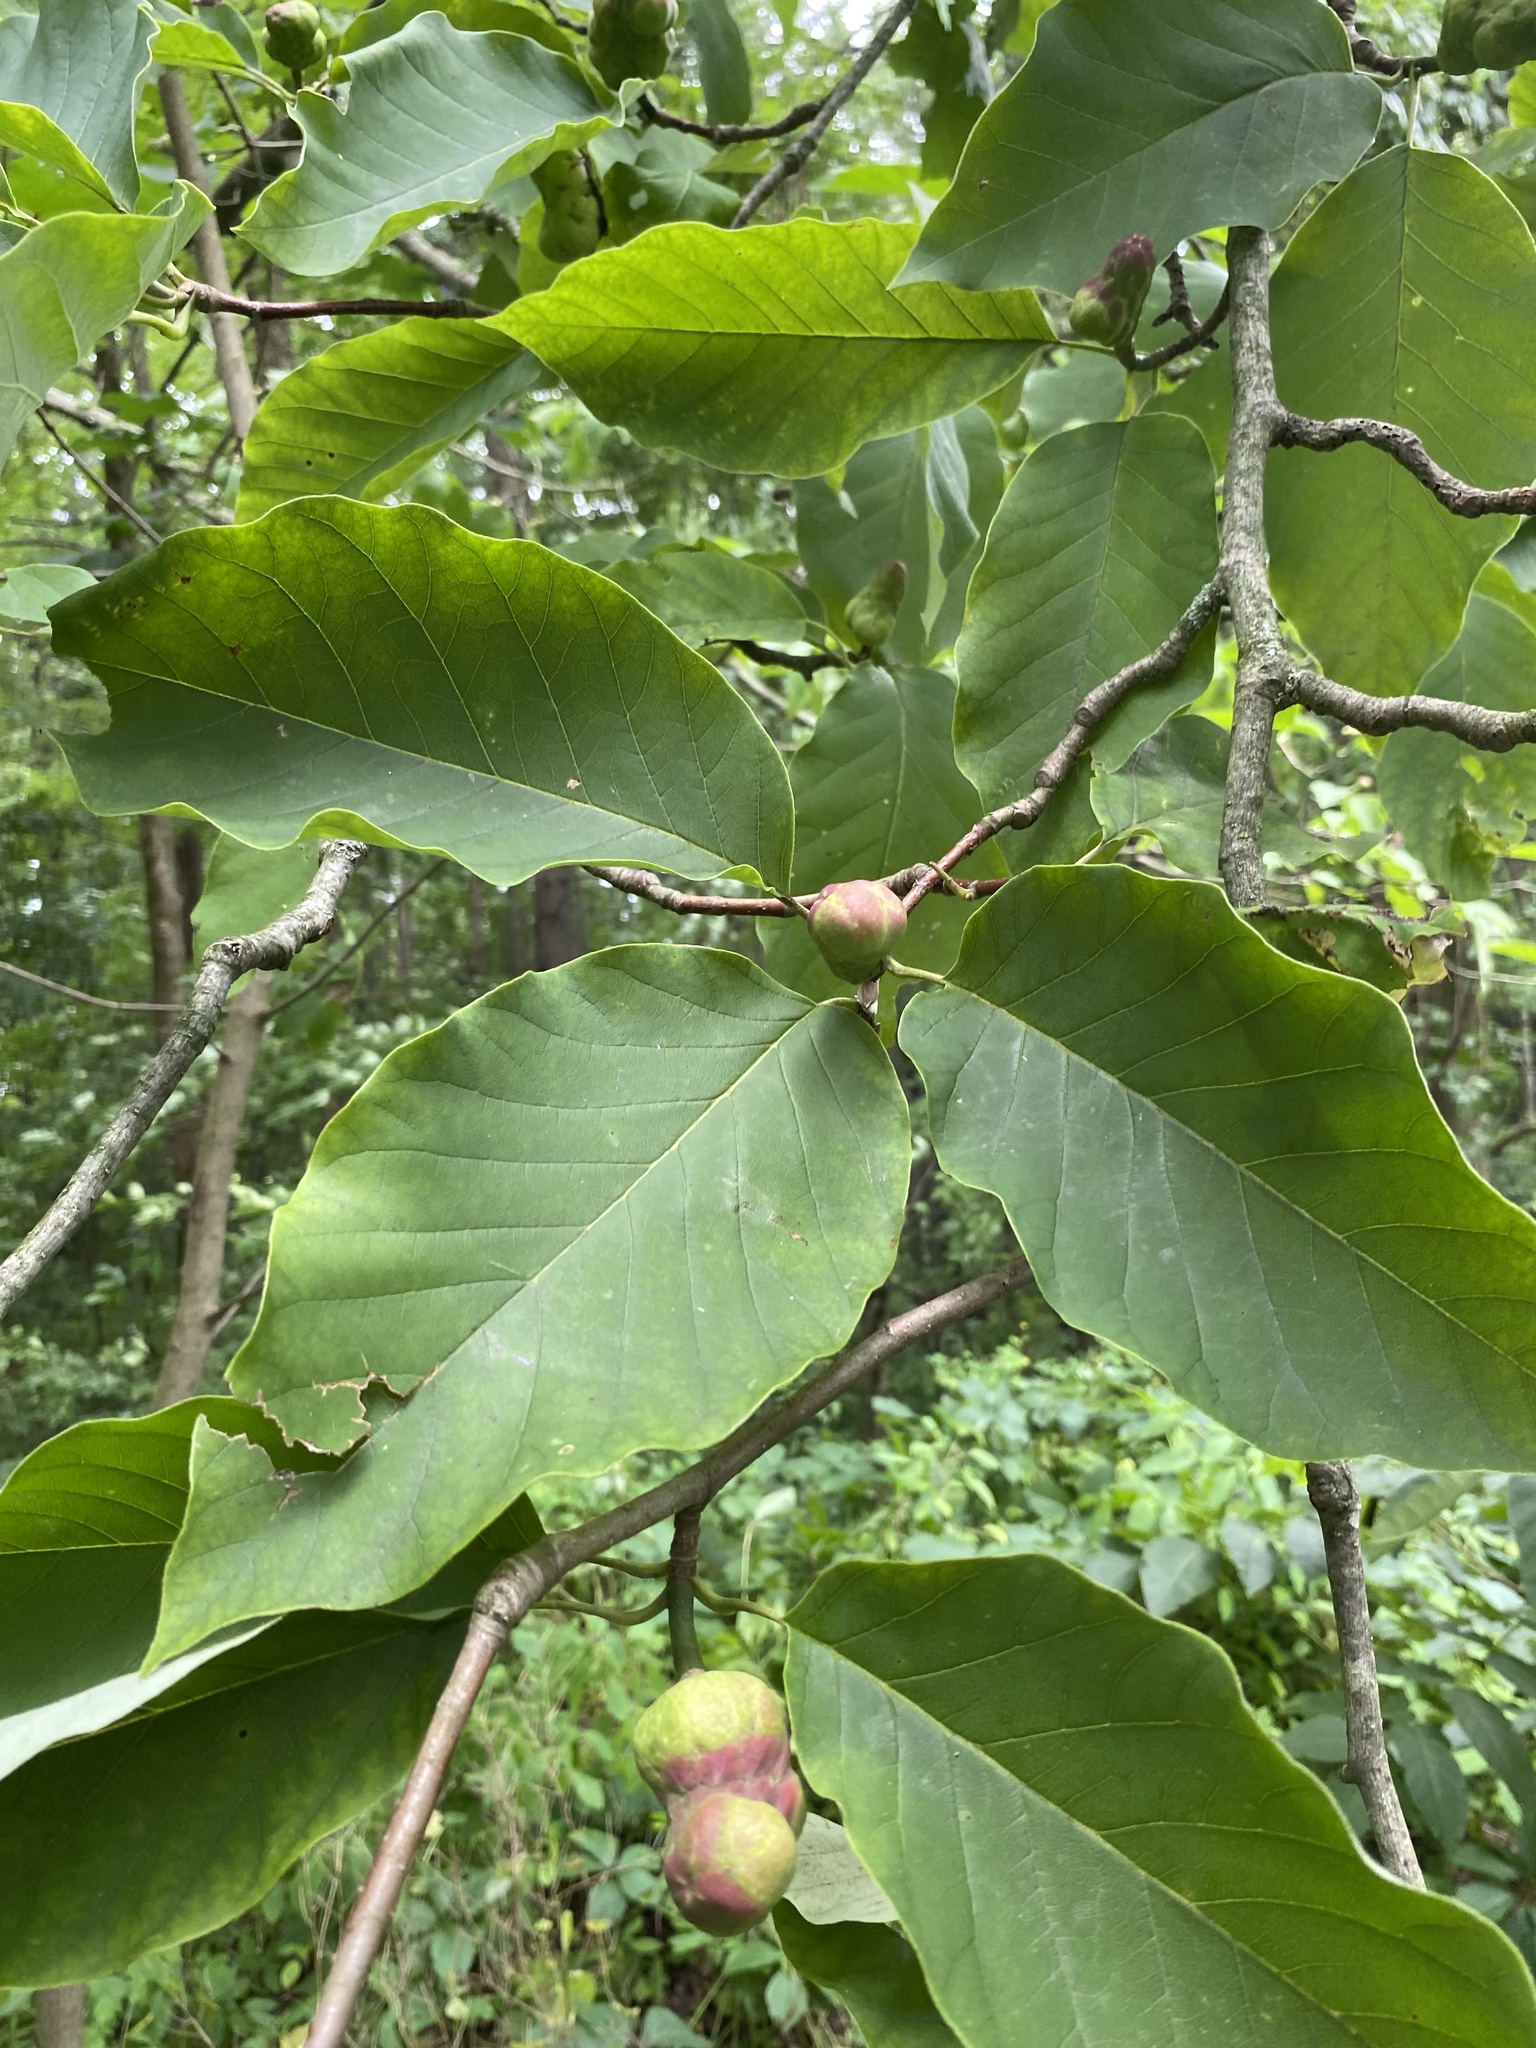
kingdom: Plantae
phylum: Tracheophyta
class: Magnoliopsida
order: Magnoliales
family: Magnoliaceae
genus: Magnolia
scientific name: Magnolia acuminata
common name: Cucumber magnolia
